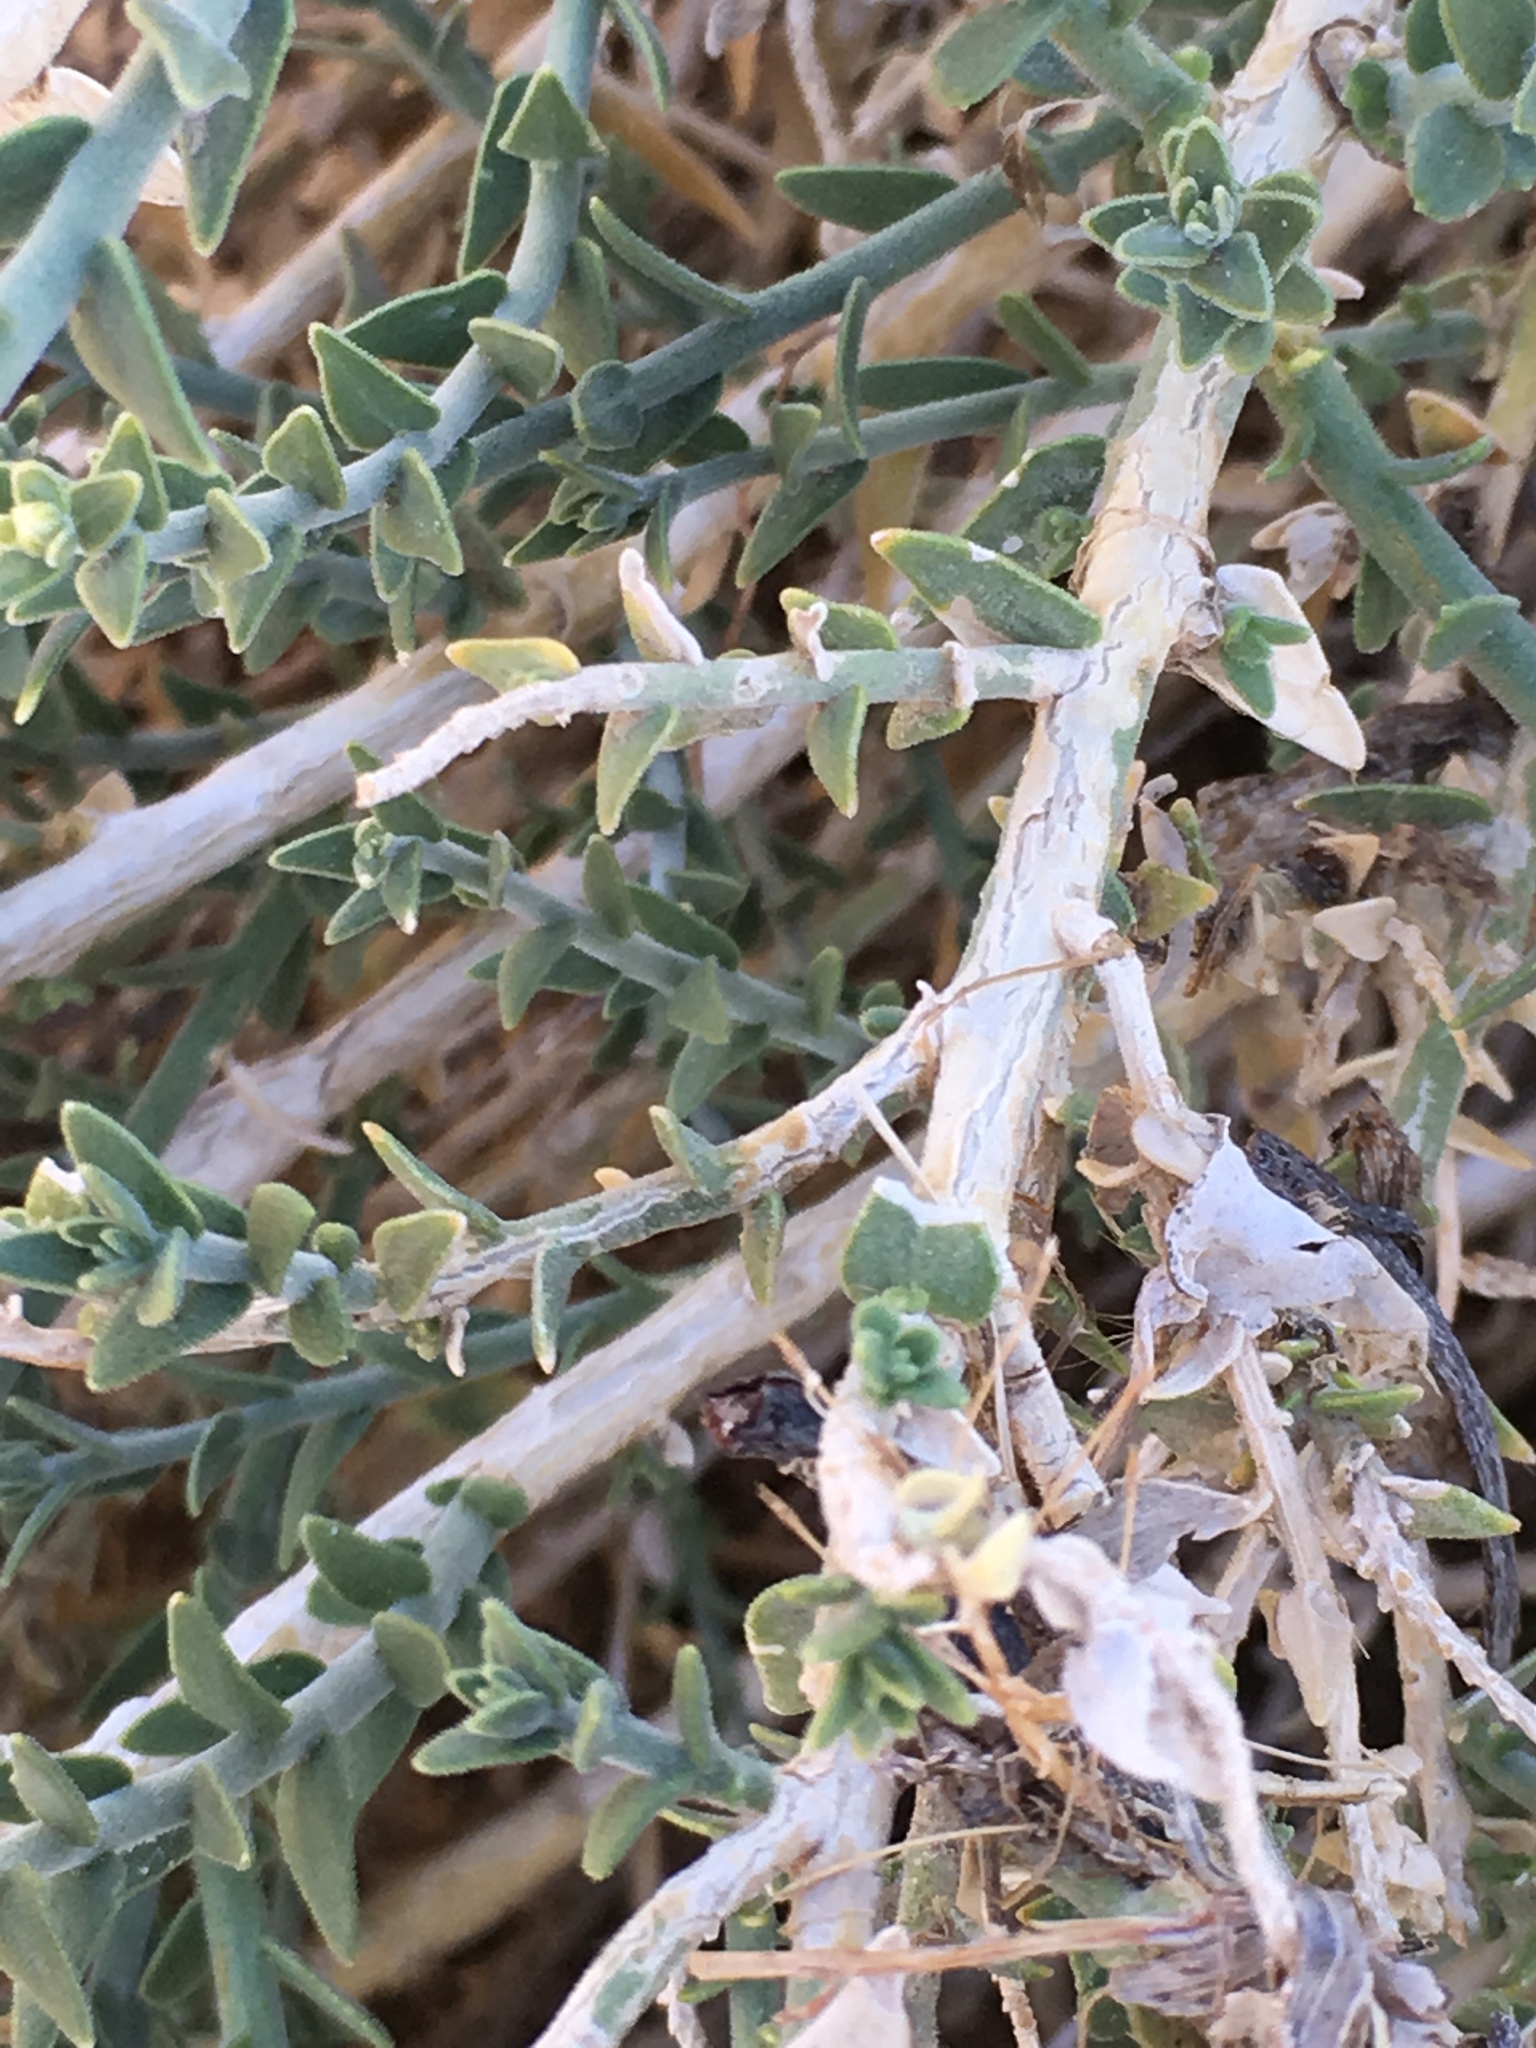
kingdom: Plantae
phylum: Tracheophyta
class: Magnoliopsida
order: Cornales
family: Loasaceae
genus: Petalonyx
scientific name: Petalonyx thurberi
